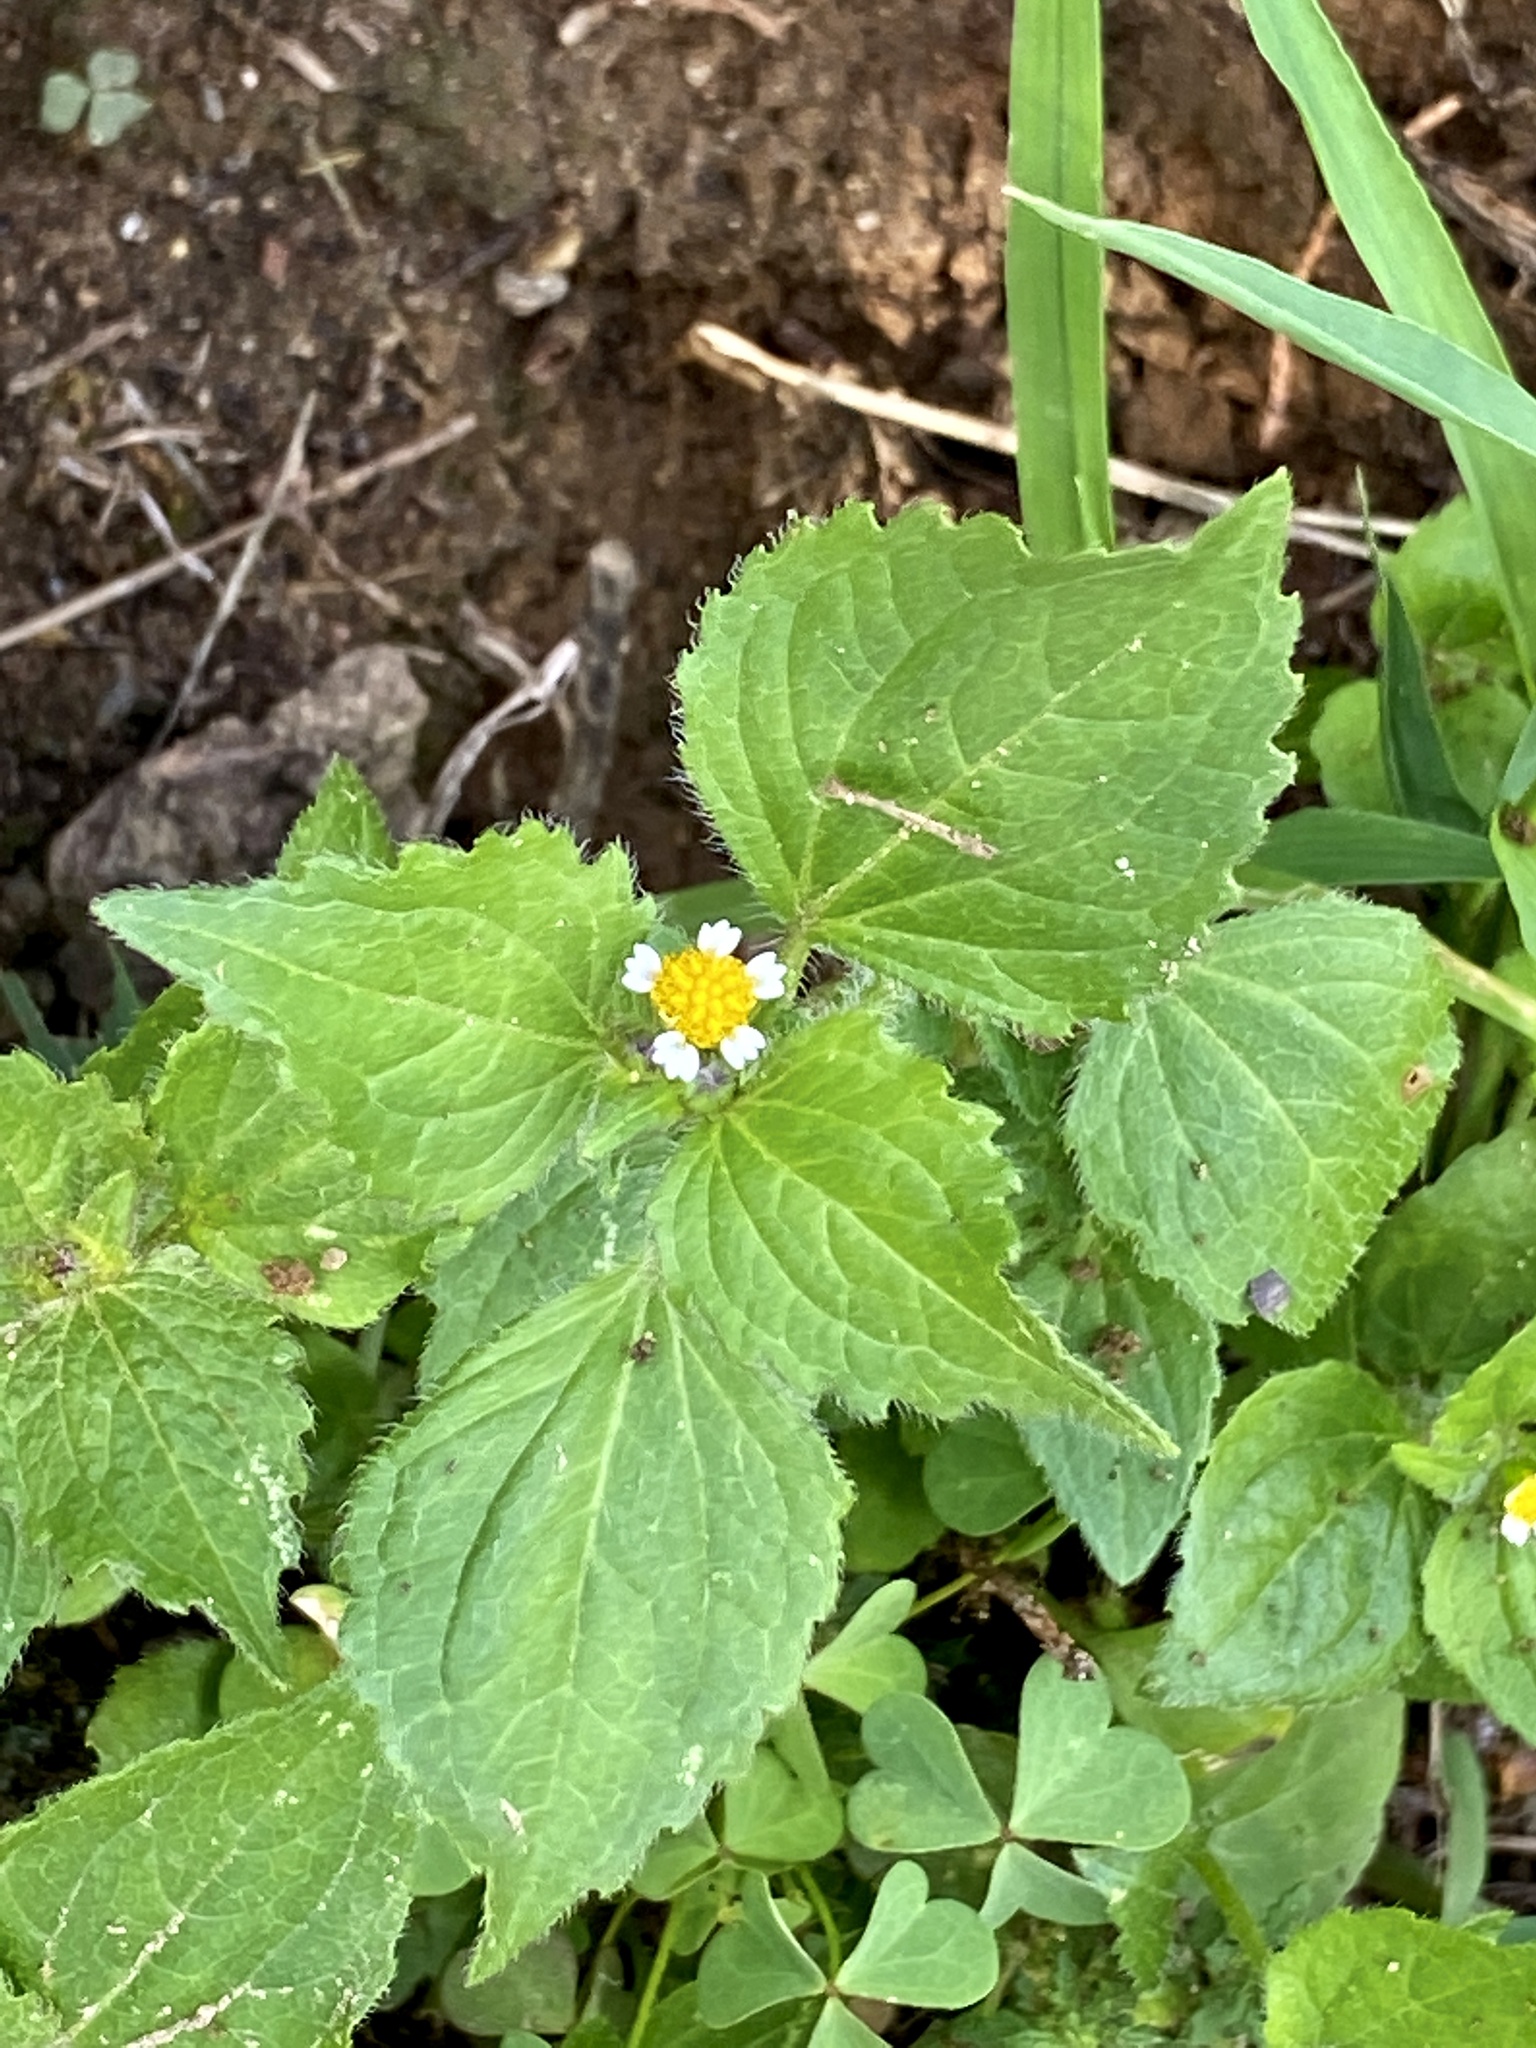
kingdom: Plantae
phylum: Tracheophyta
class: Magnoliopsida
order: Asterales
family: Asteraceae
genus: Galinsoga
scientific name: Galinsoga quadriradiata
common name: Shaggy soldier
